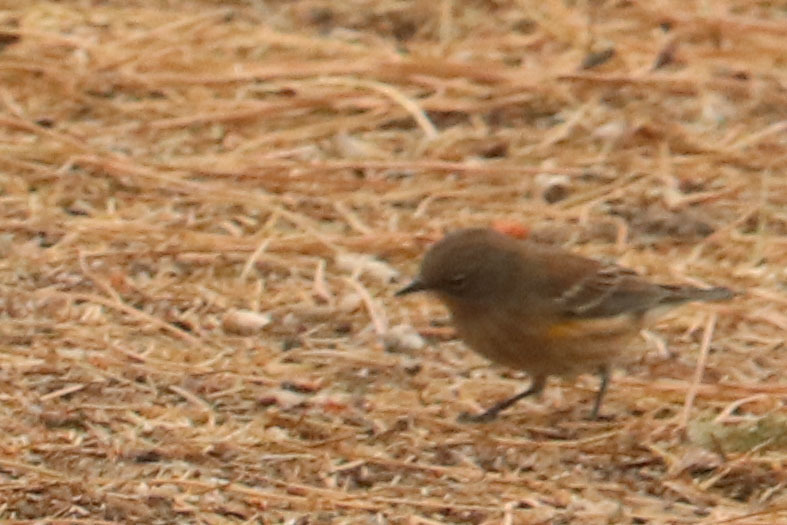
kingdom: Animalia
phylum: Chordata
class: Aves
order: Passeriformes
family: Parulidae
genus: Setophaga
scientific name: Setophaga coronata
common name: Myrtle warbler
